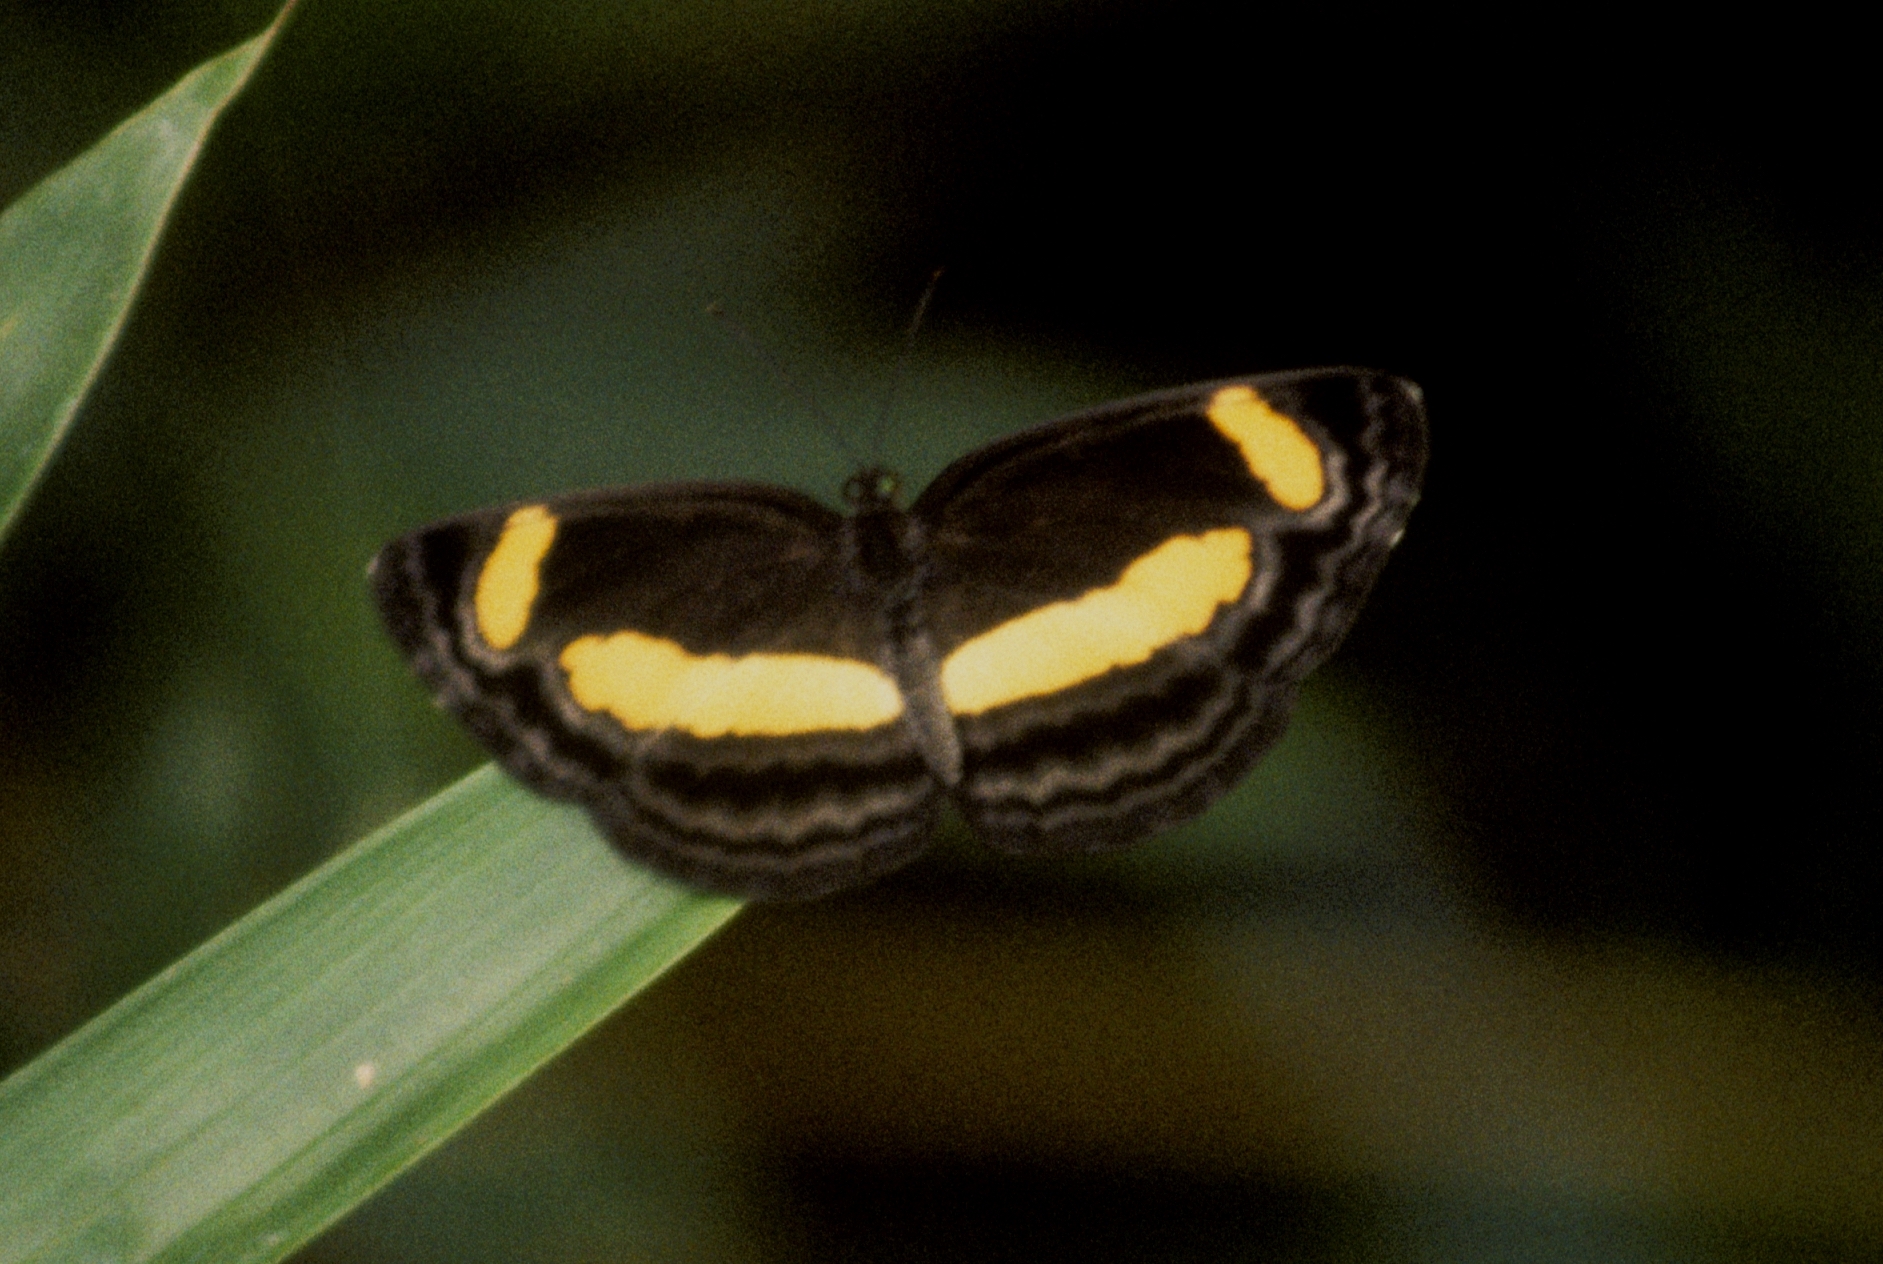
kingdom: Animalia
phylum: Arthropoda
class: Insecta
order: Lepidoptera
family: Nymphalidae
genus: Pantoporia
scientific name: Pantoporia consimilis
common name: Orange plane
